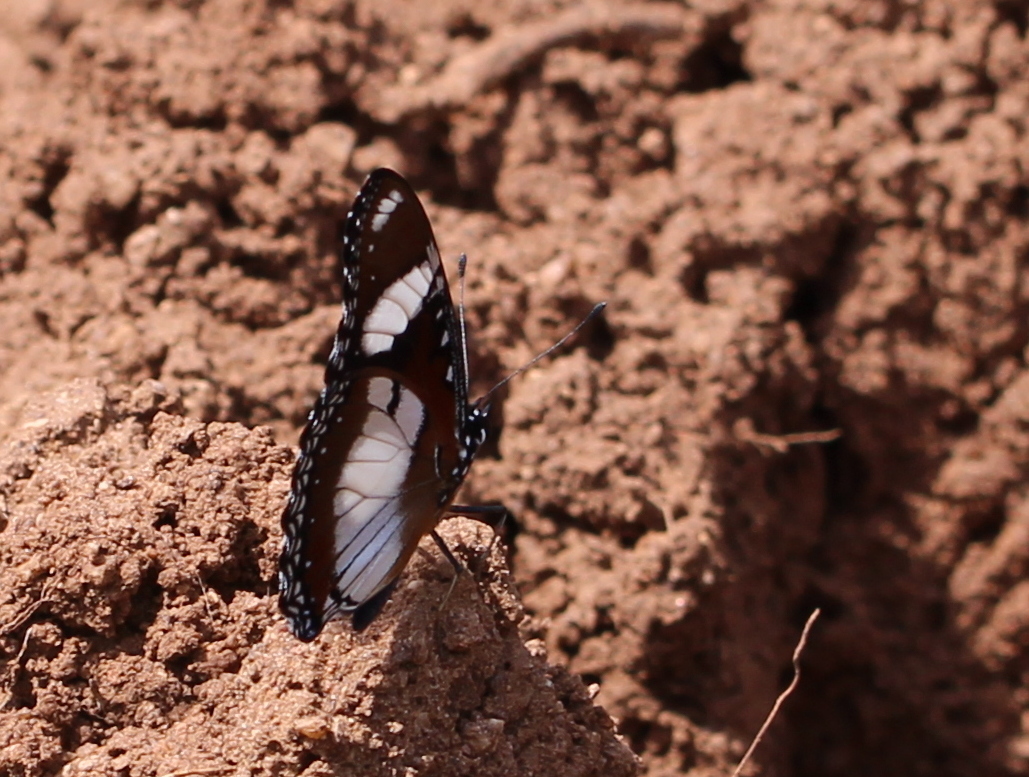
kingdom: Animalia
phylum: Arthropoda
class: Insecta
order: Lepidoptera
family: Nymphalidae
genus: Hypolimnas
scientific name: Hypolimnas misippus
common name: False plain tiger
